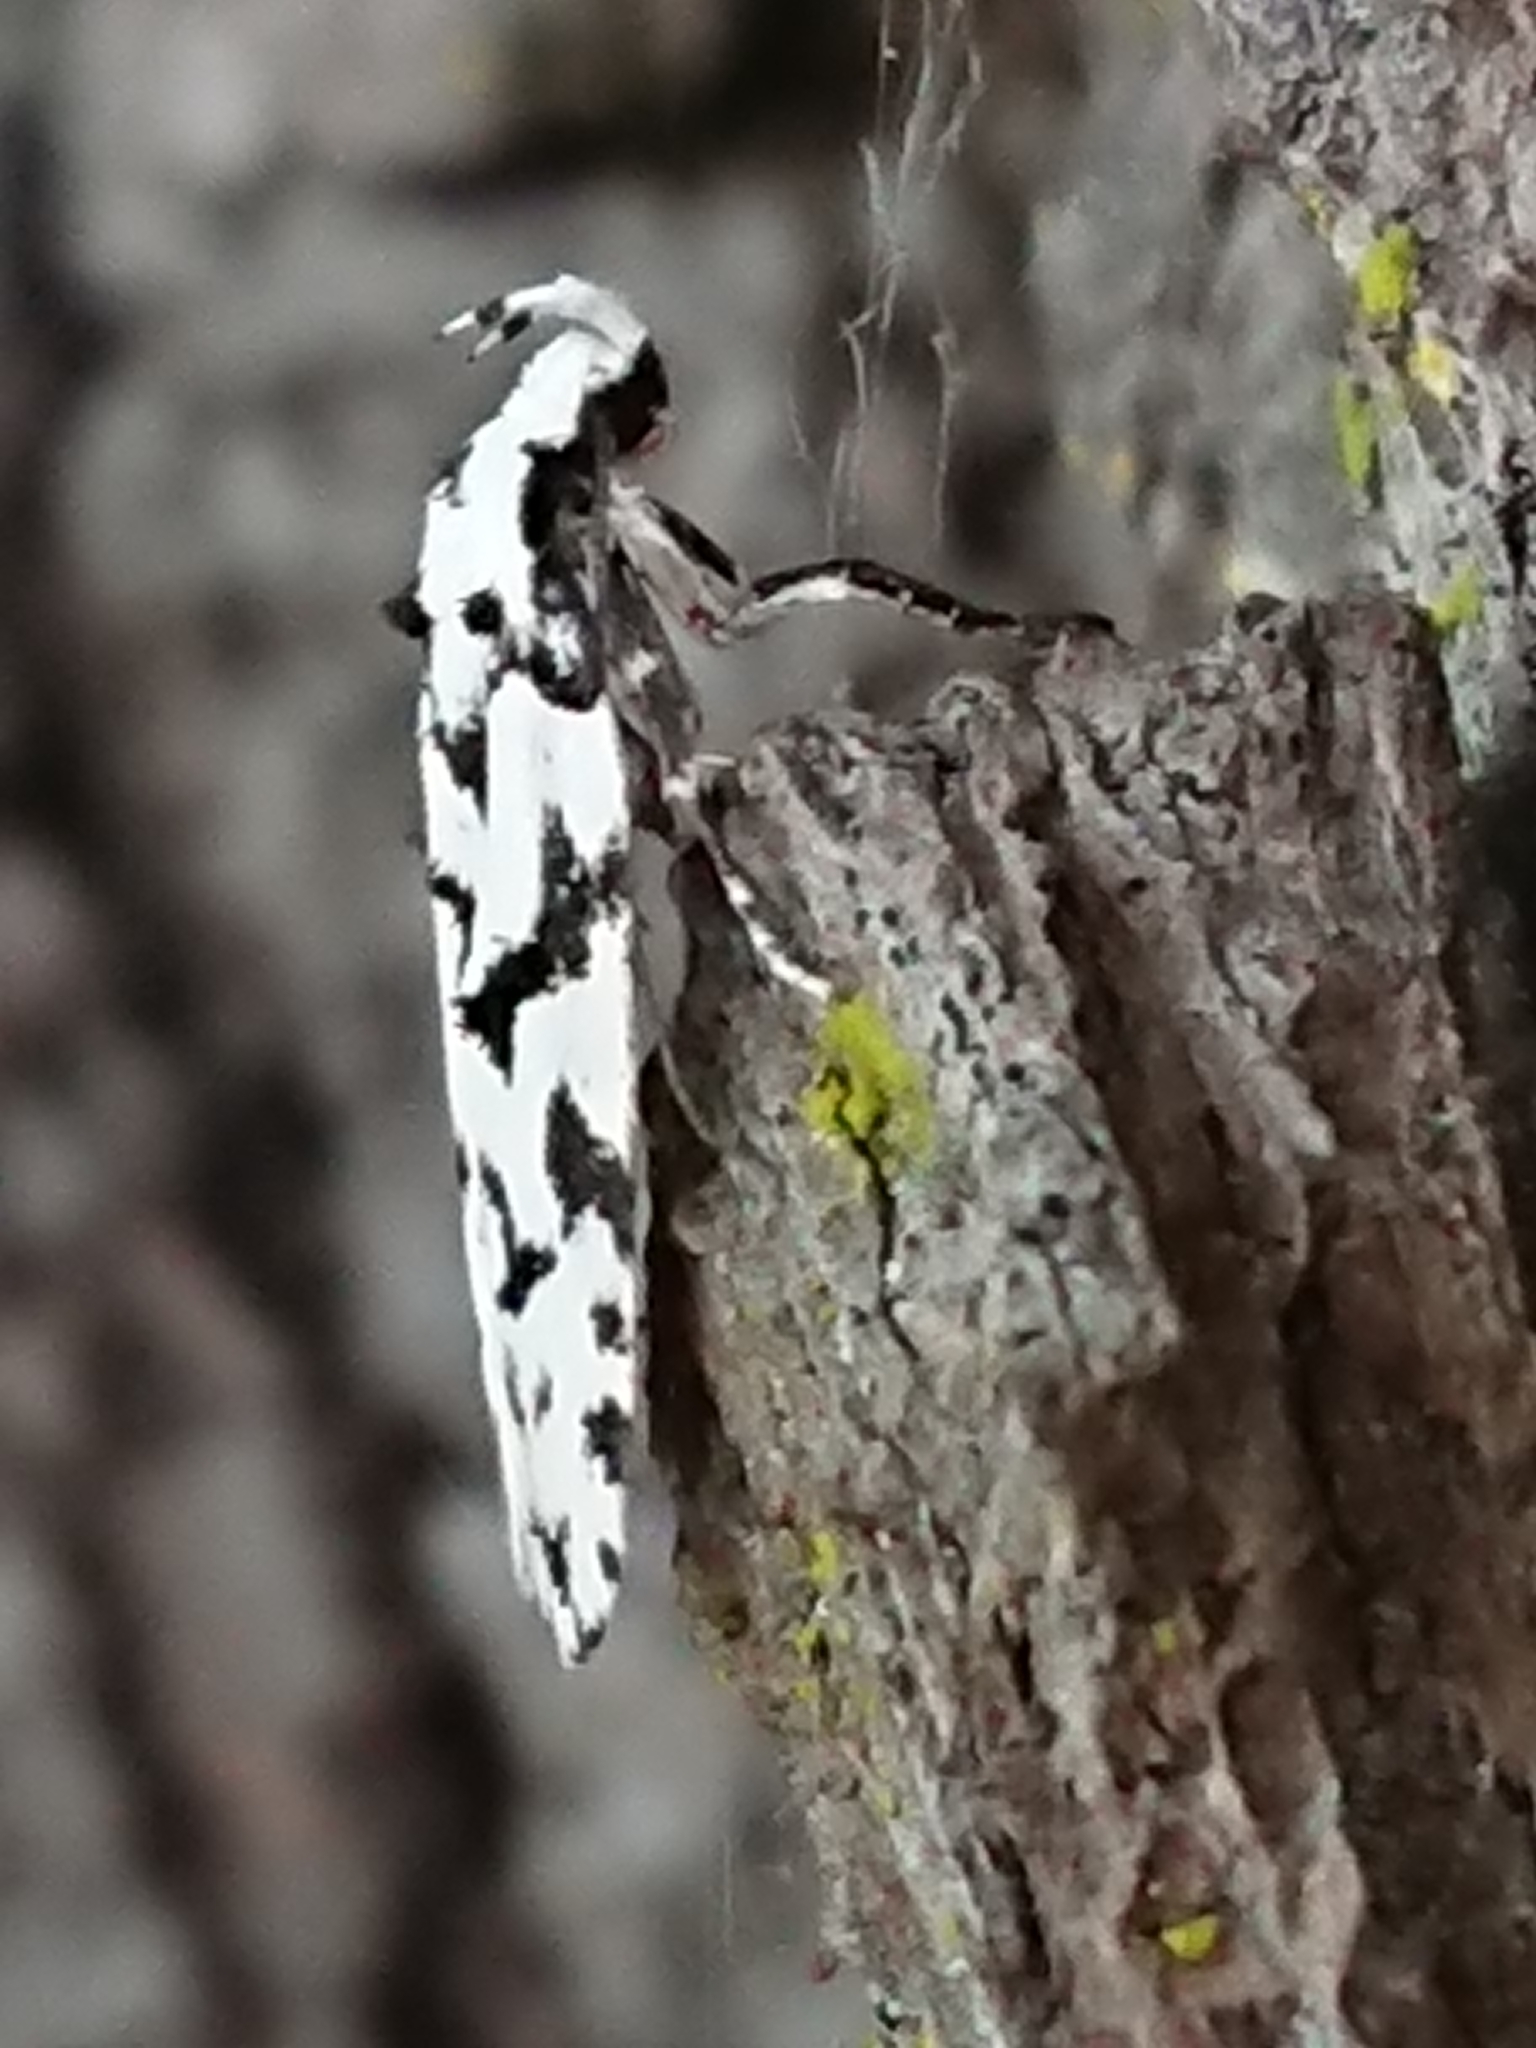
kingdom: Animalia
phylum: Arthropoda
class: Insecta
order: Lepidoptera
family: Oecophoridae
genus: Izatha
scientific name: Izatha katadiktya
